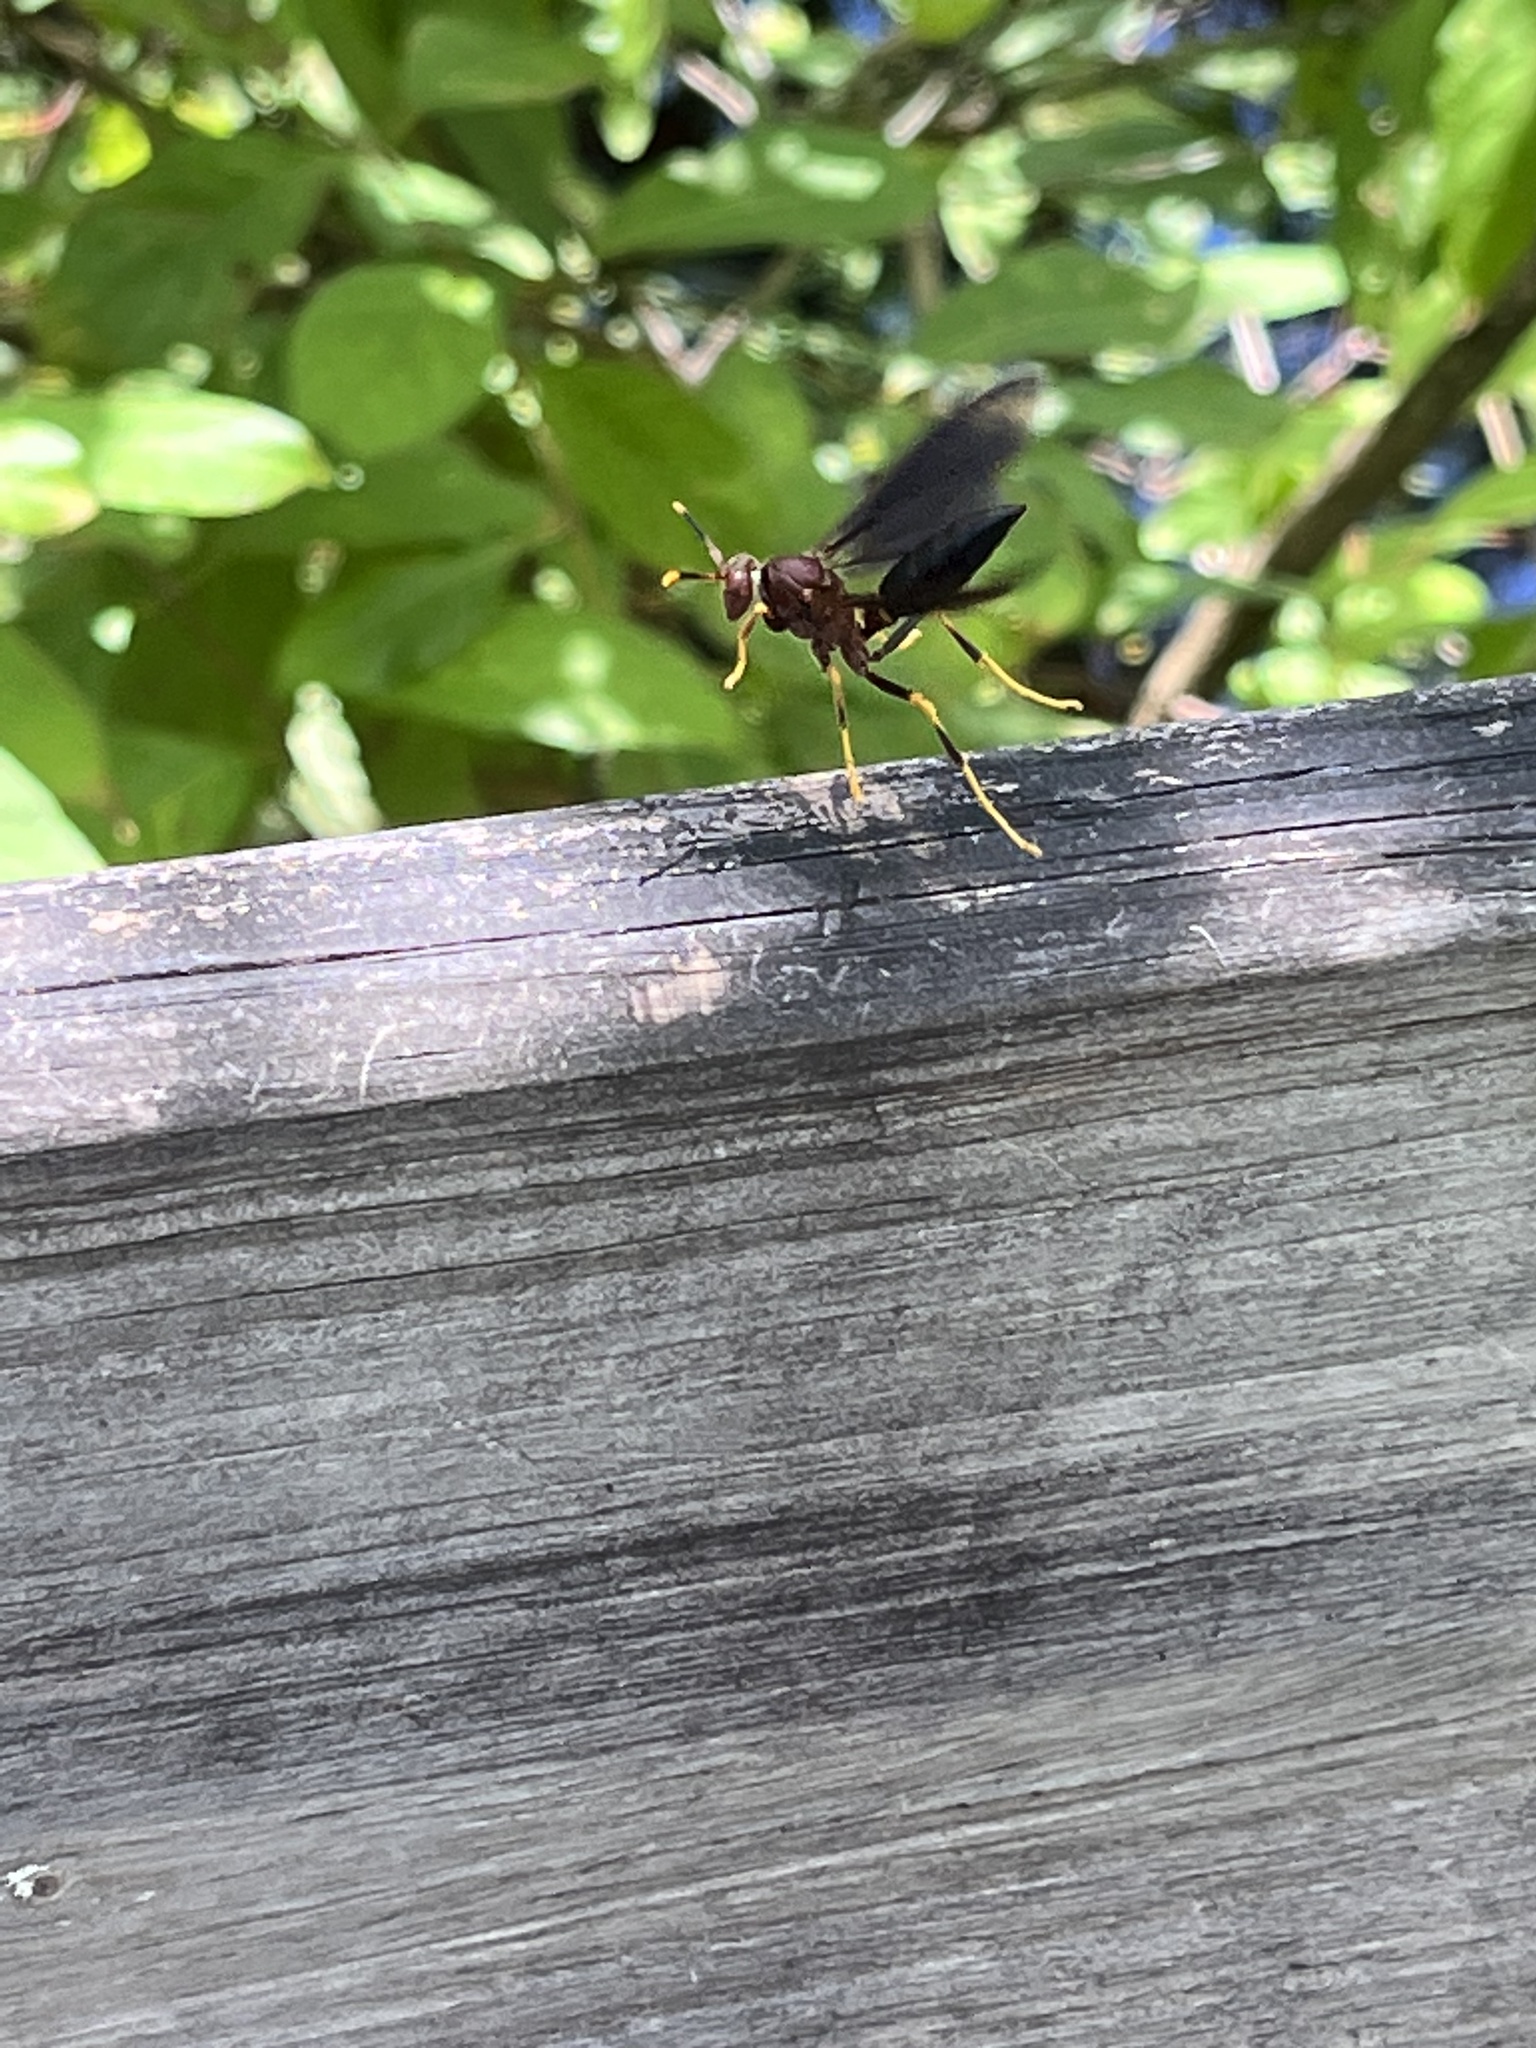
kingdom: Animalia
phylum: Arthropoda
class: Insecta
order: Hymenoptera
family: Eumenidae
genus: Polistes
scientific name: Polistes annularis
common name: Ringed paper wasp
